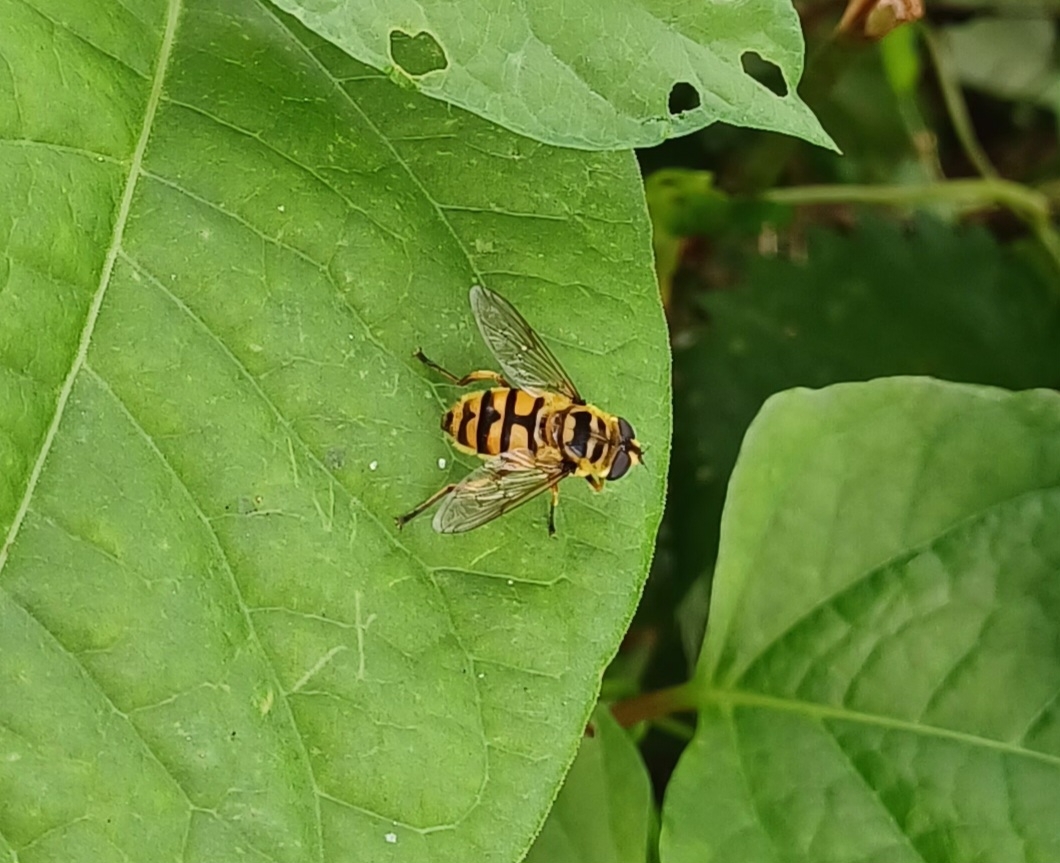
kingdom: Animalia
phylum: Arthropoda
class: Insecta
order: Diptera
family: Syrphidae
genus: Myathropa
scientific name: Myathropa florea
